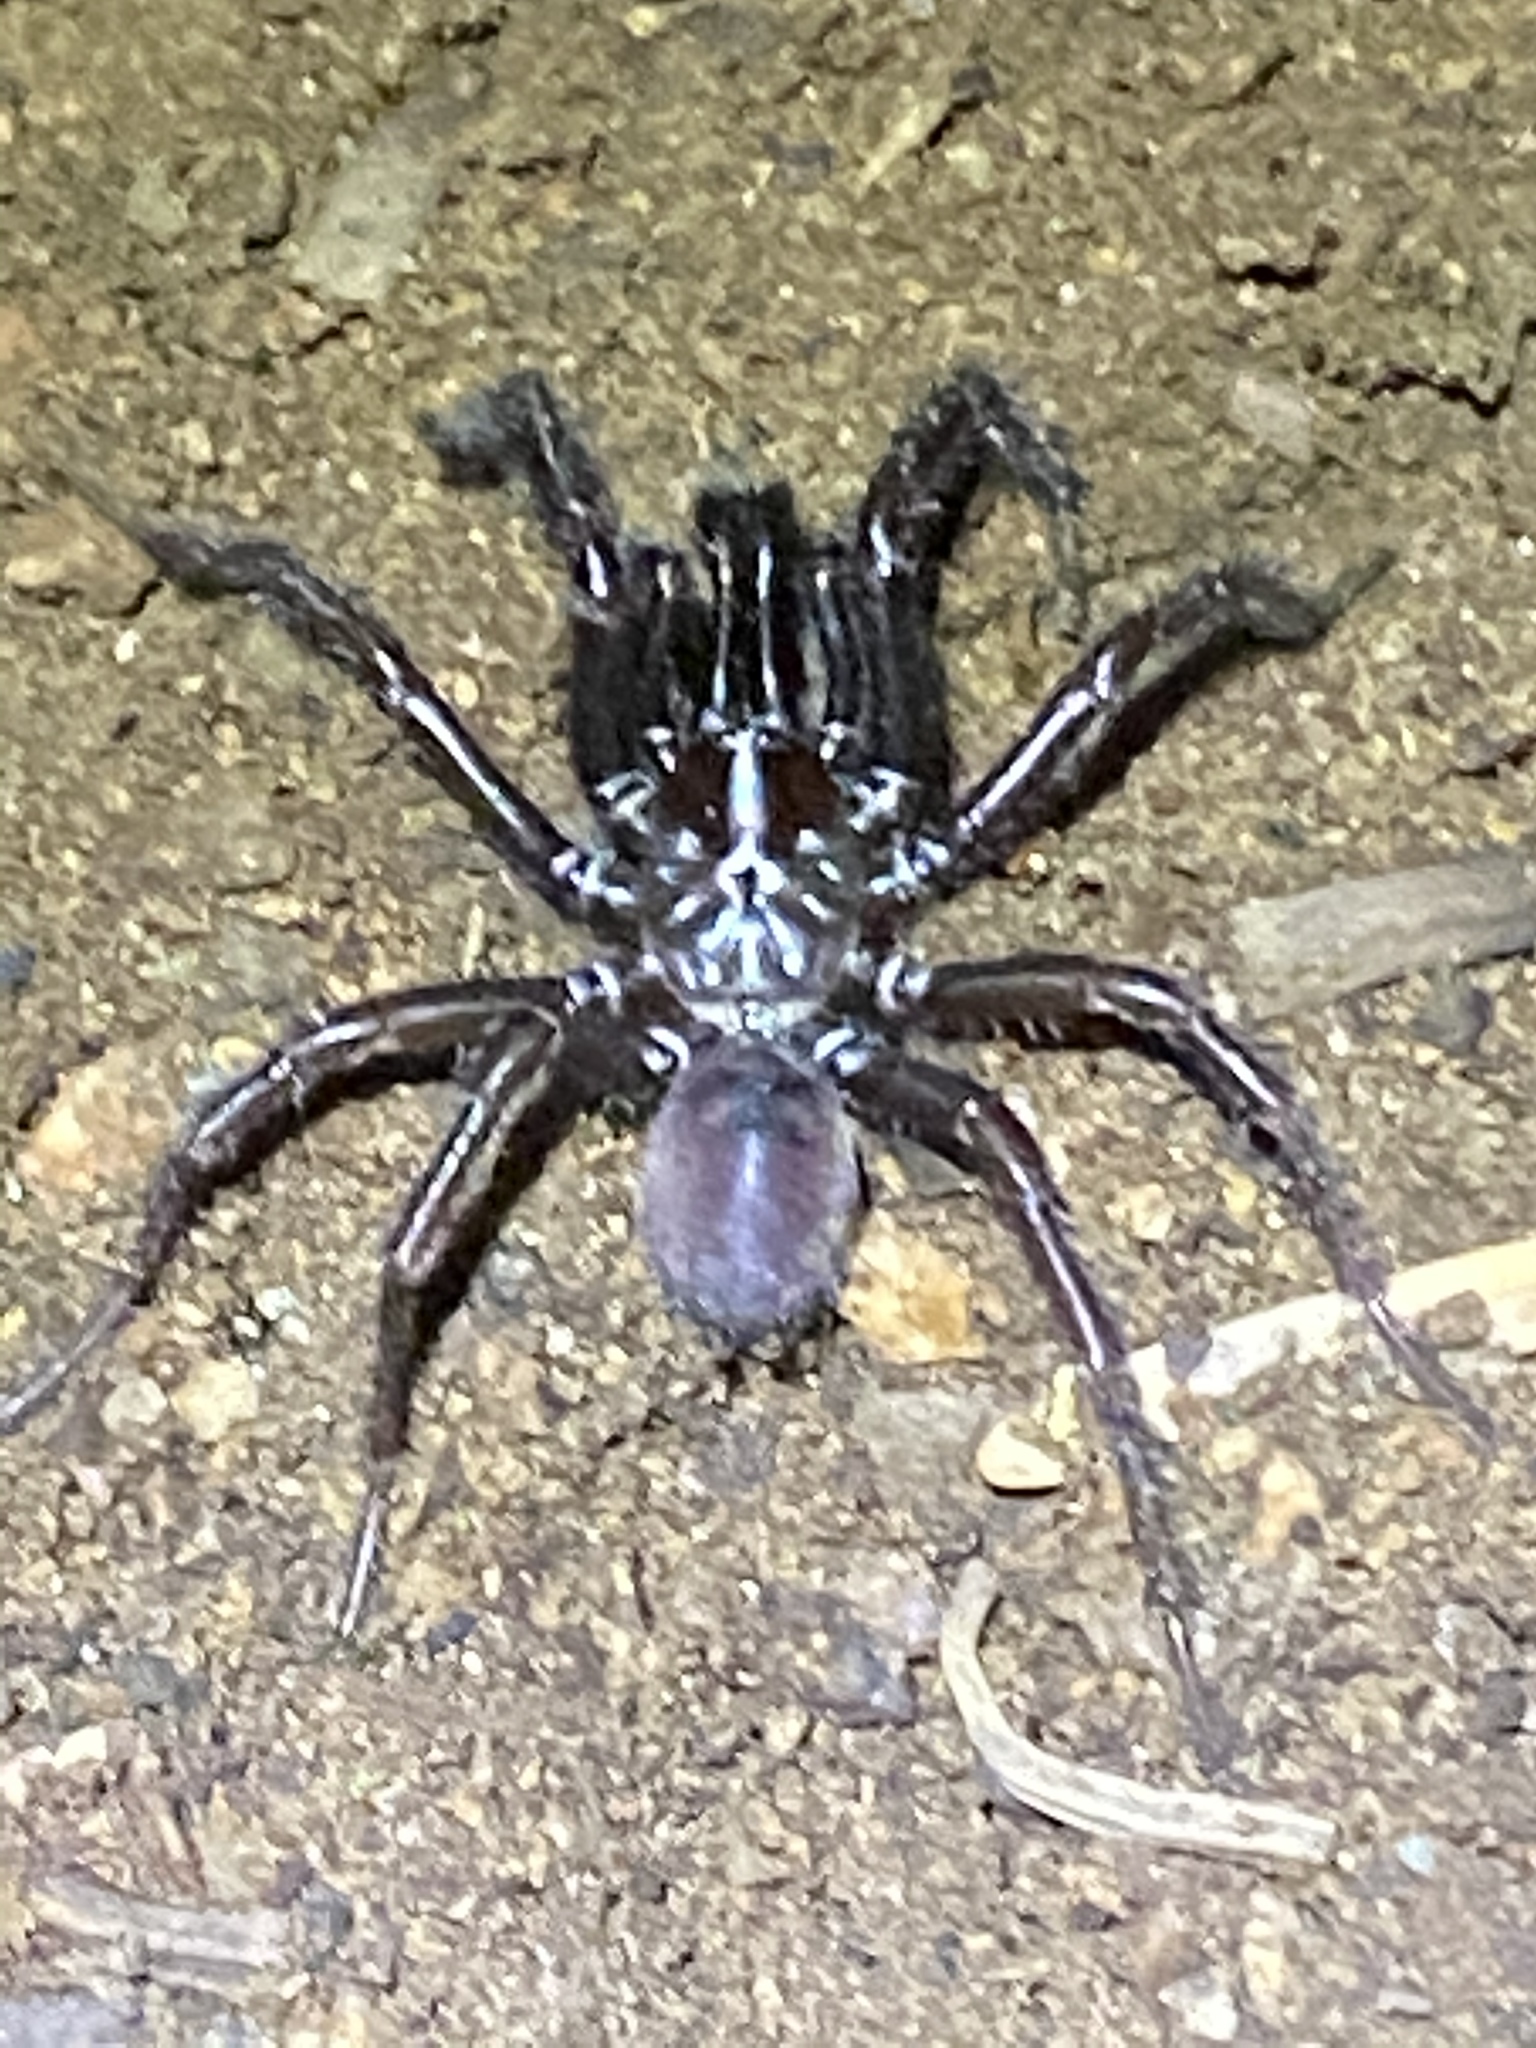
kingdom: Animalia
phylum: Arthropoda
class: Arachnida
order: Araneae
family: Antrodiaetidae
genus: Atypoides
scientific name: Atypoides riversi
